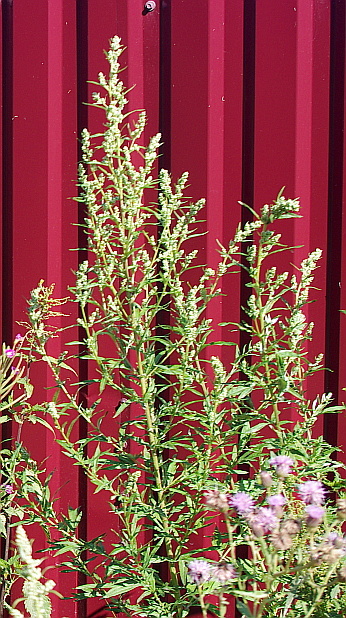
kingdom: Plantae
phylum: Tracheophyta
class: Magnoliopsida
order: Asterales
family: Asteraceae
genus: Artemisia
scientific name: Artemisia vulgaris
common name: Mugwort
